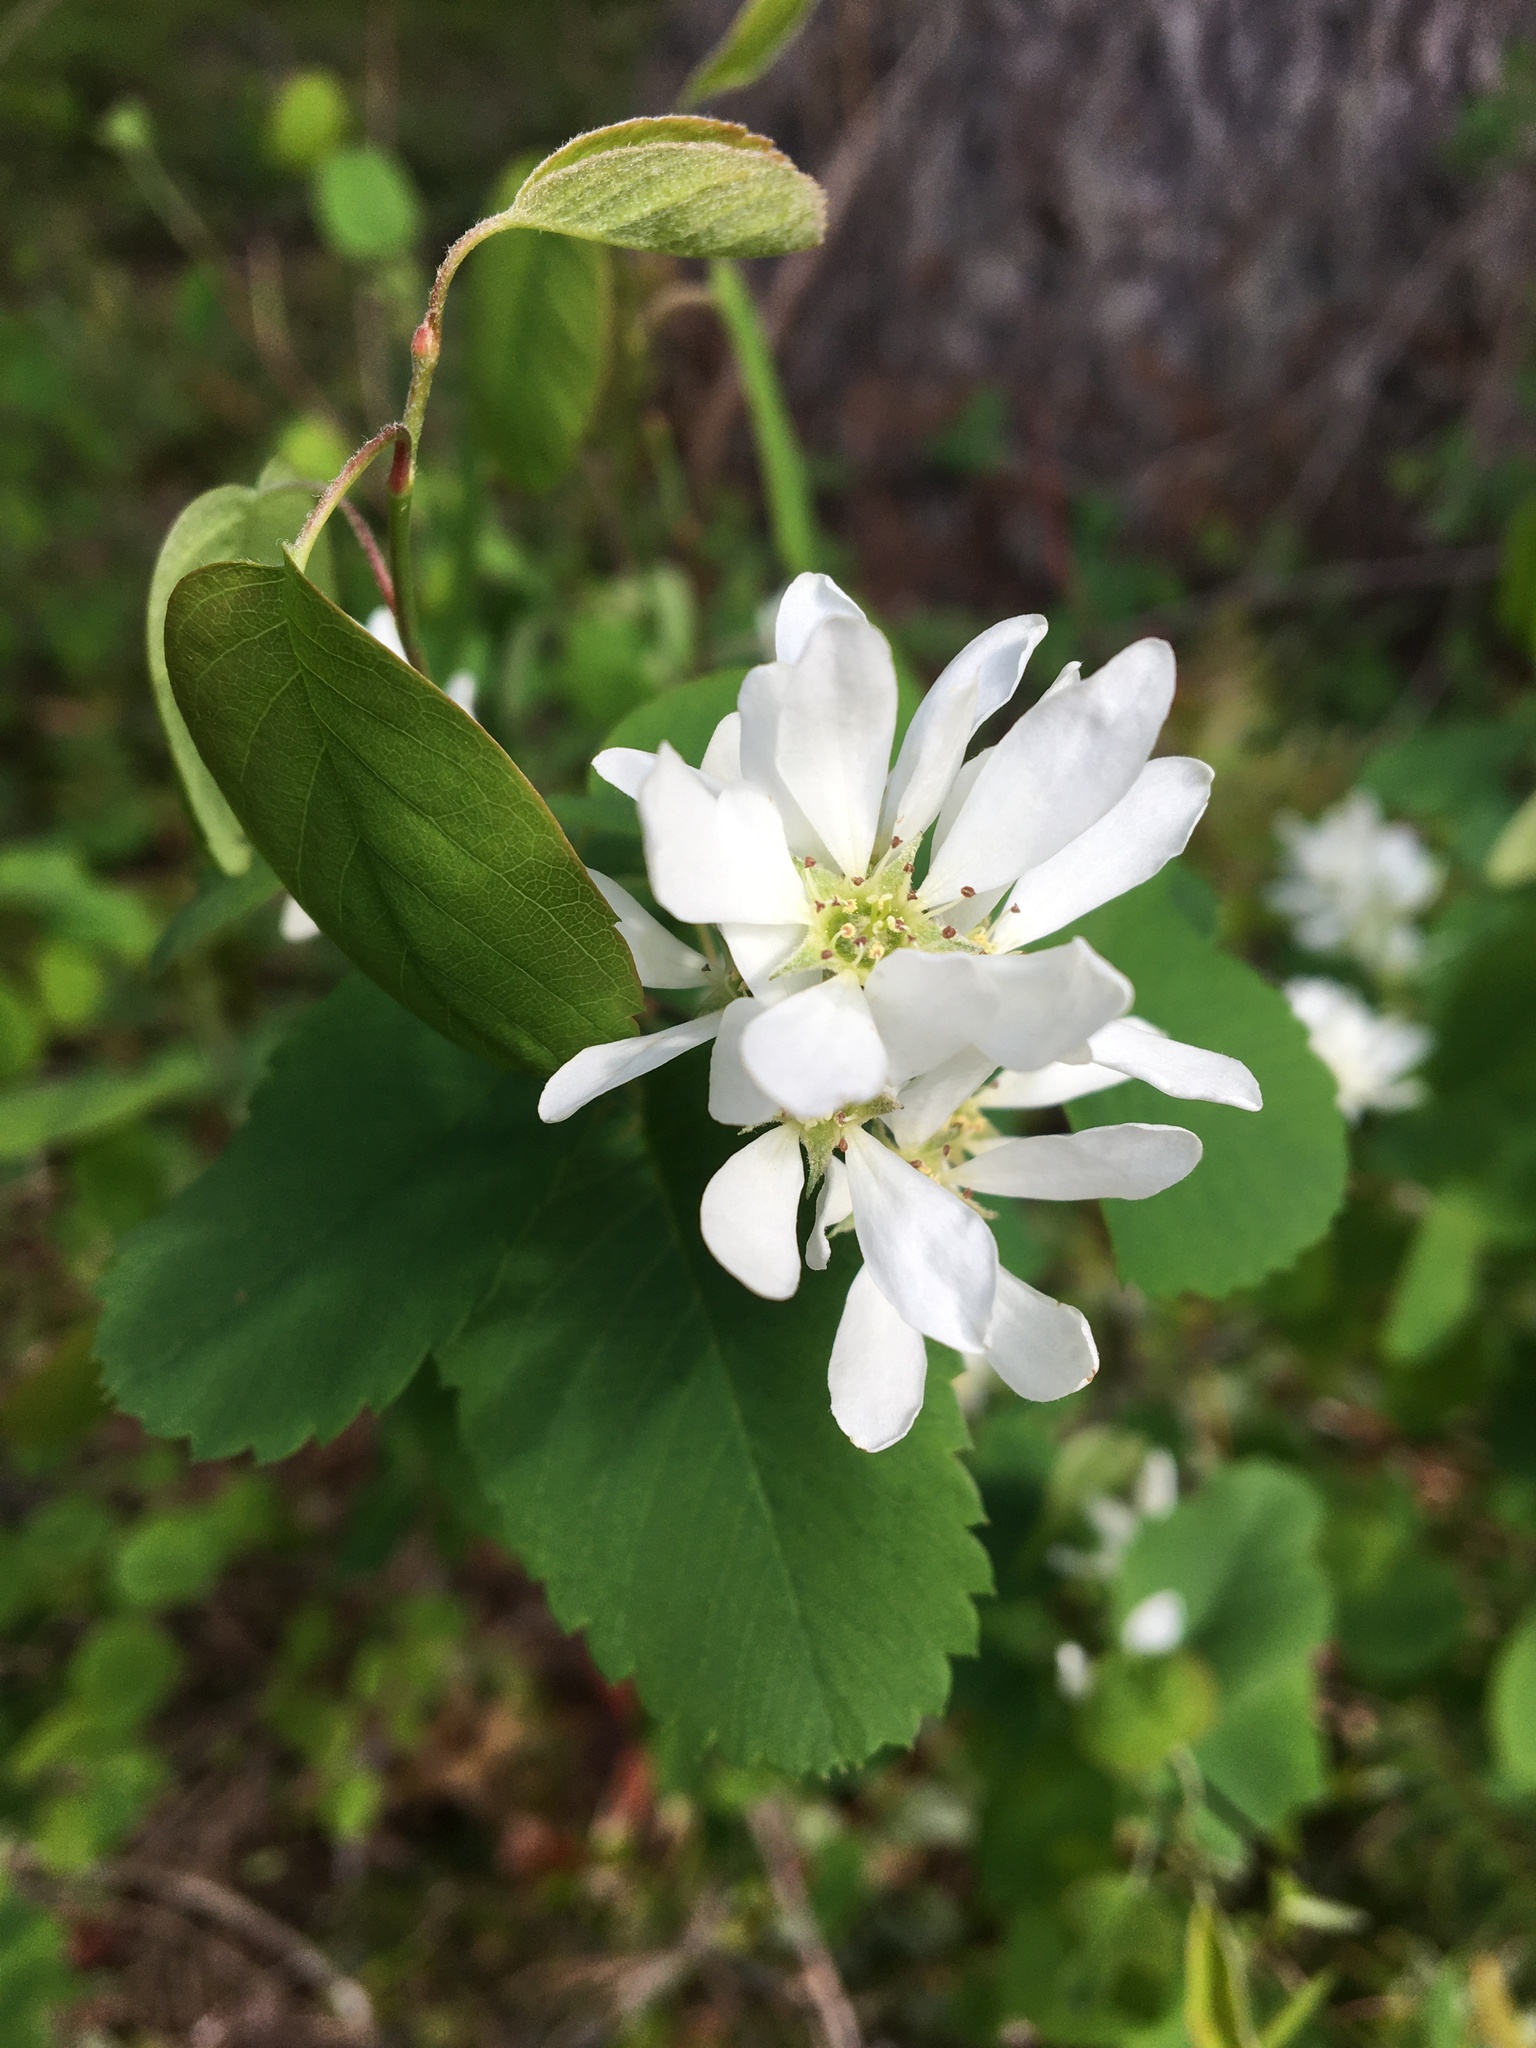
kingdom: Plantae
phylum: Tracheophyta
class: Magnoliopsida
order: Rosales
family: Rosaceae
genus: Amelanchier
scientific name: Amelanchier alnifolia
